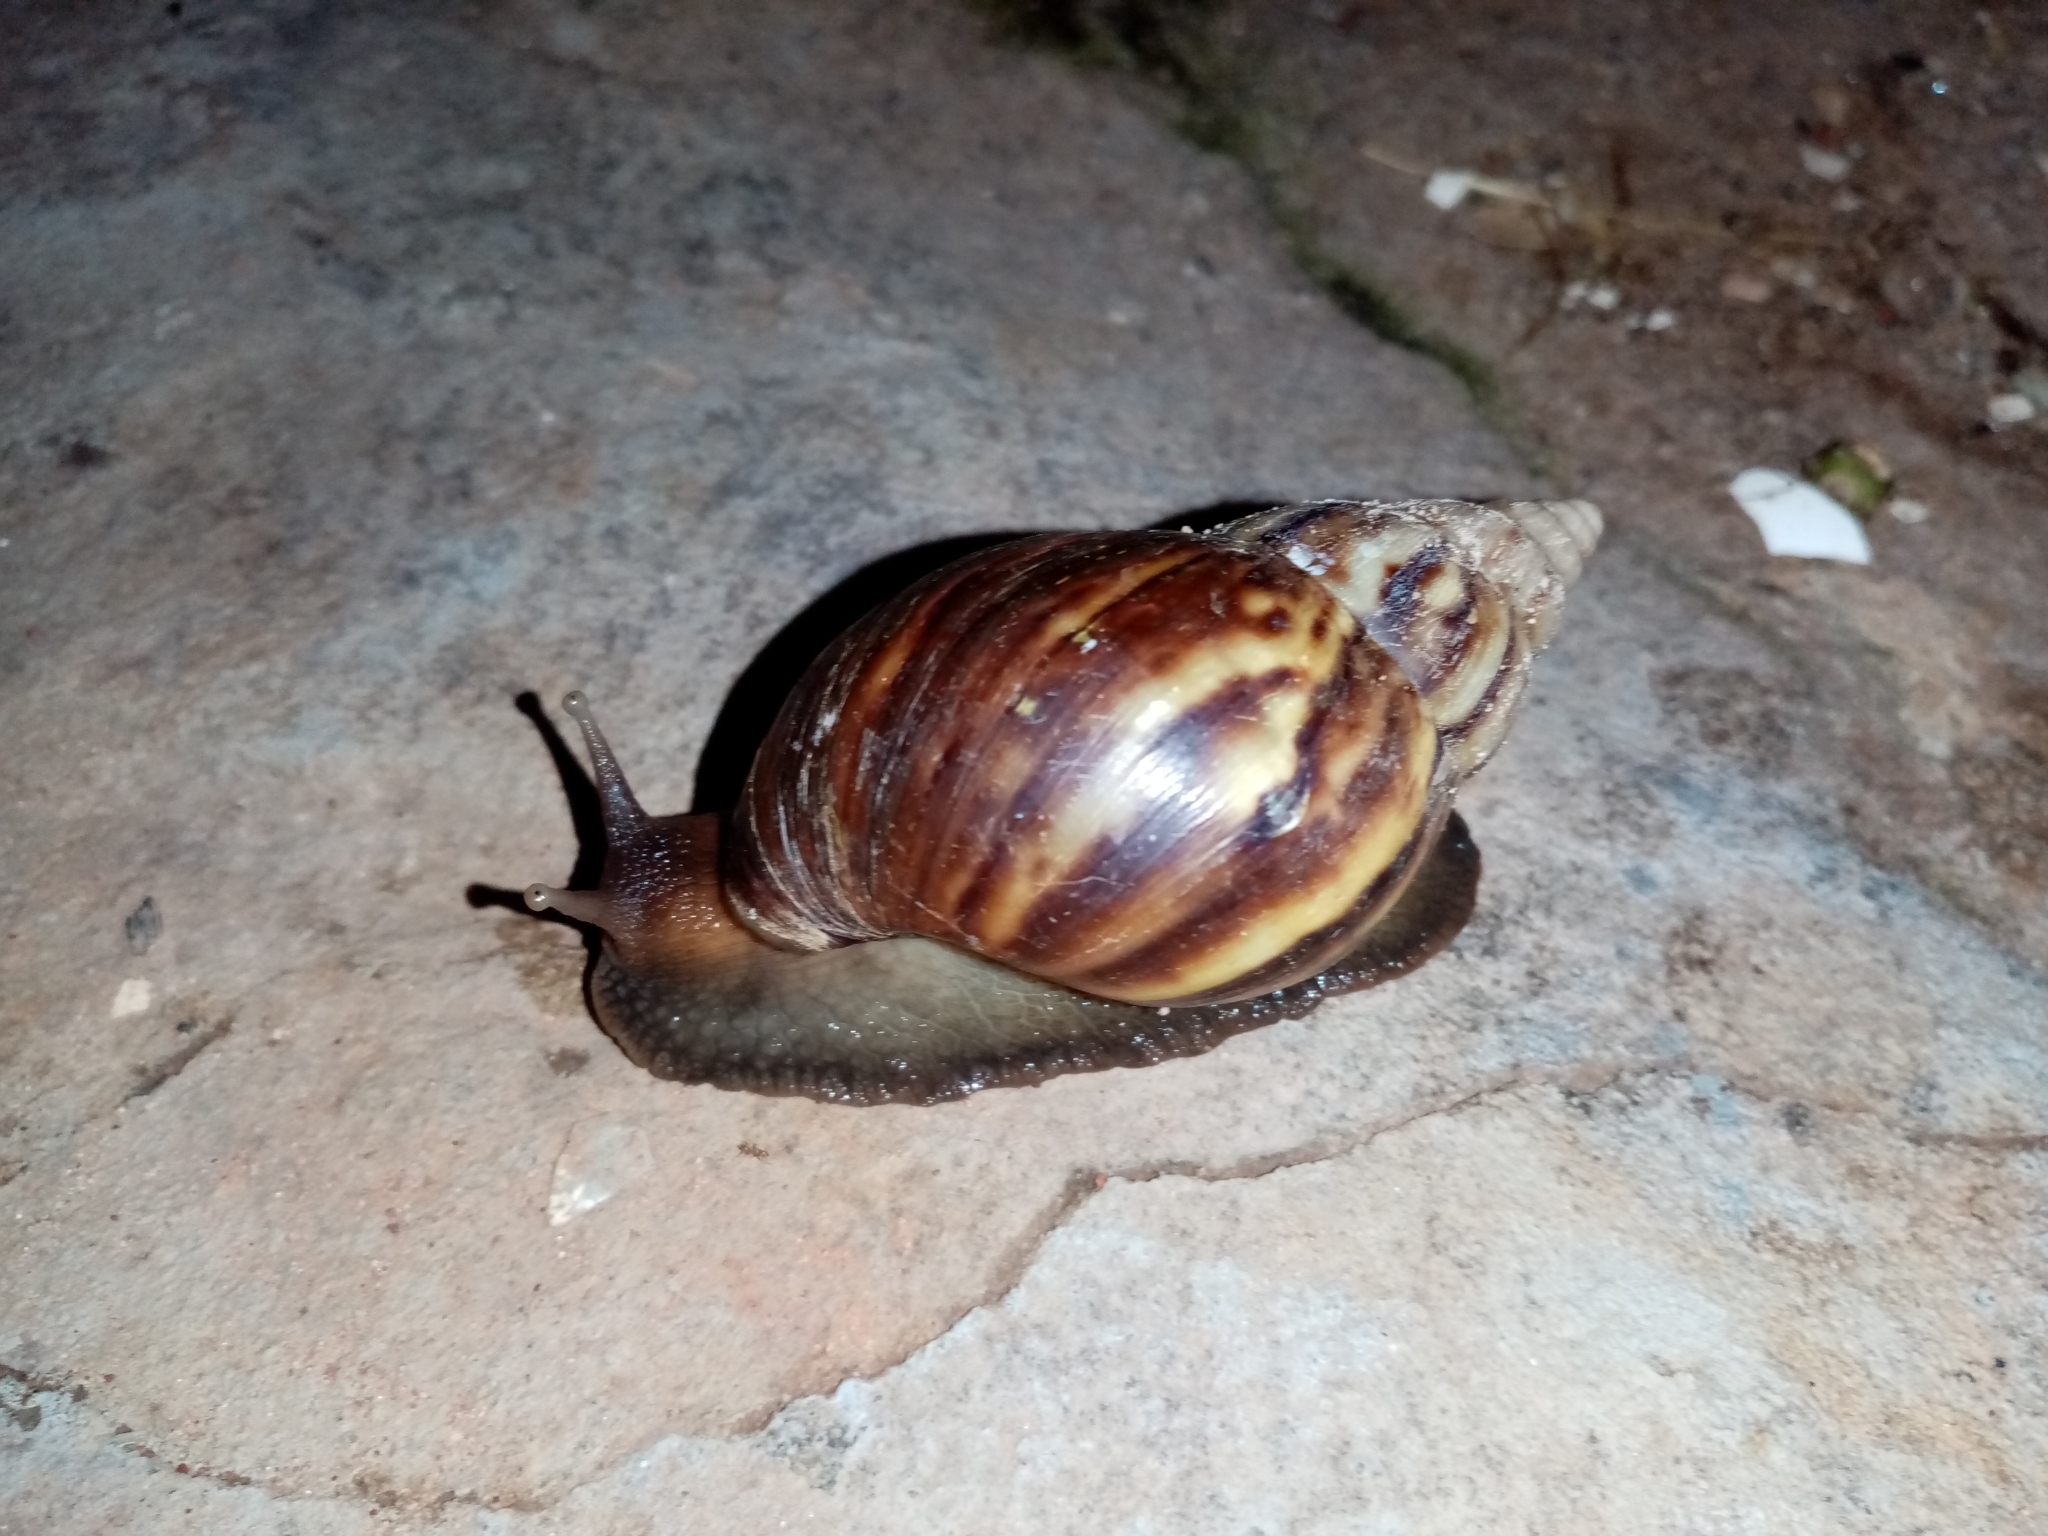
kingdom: Animalia
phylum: Mollusca
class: Gastropoda
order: Stylommatophora
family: Achatinidae
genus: Lissachatina
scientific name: Lissachatina fulica
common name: Giant african snail
